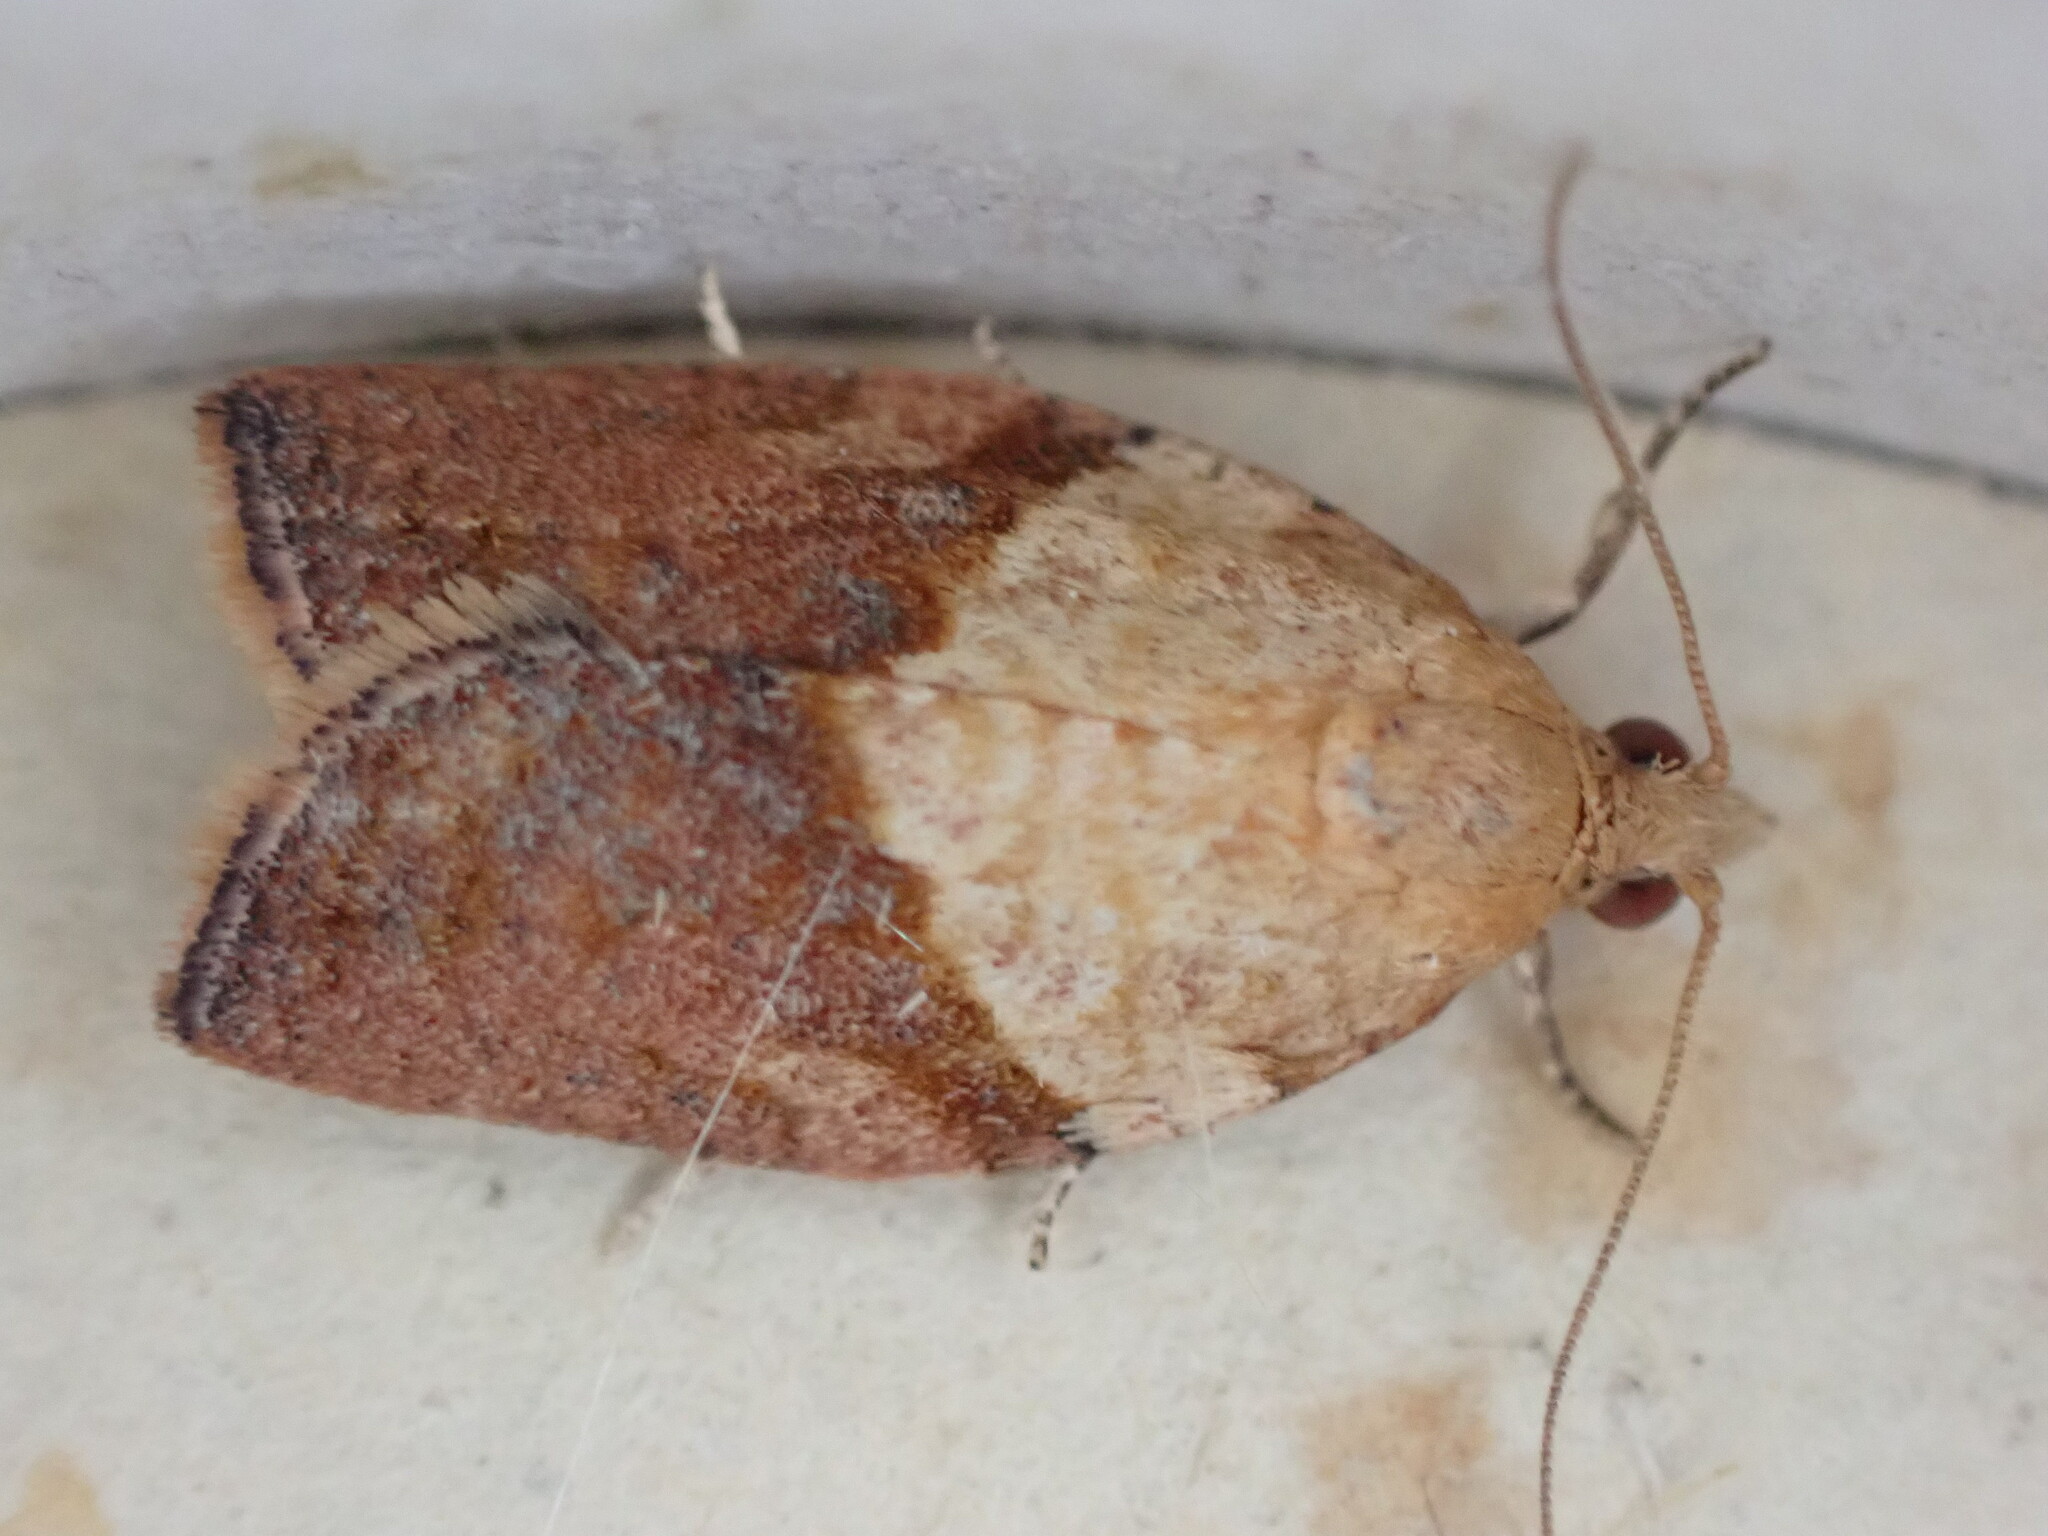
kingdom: Animalia
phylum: Arthropoda
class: Insecta
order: Lepidoptera
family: Tortricidae
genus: Epiphyas
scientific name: Epiphyas postvittana
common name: Light brown apple moth
